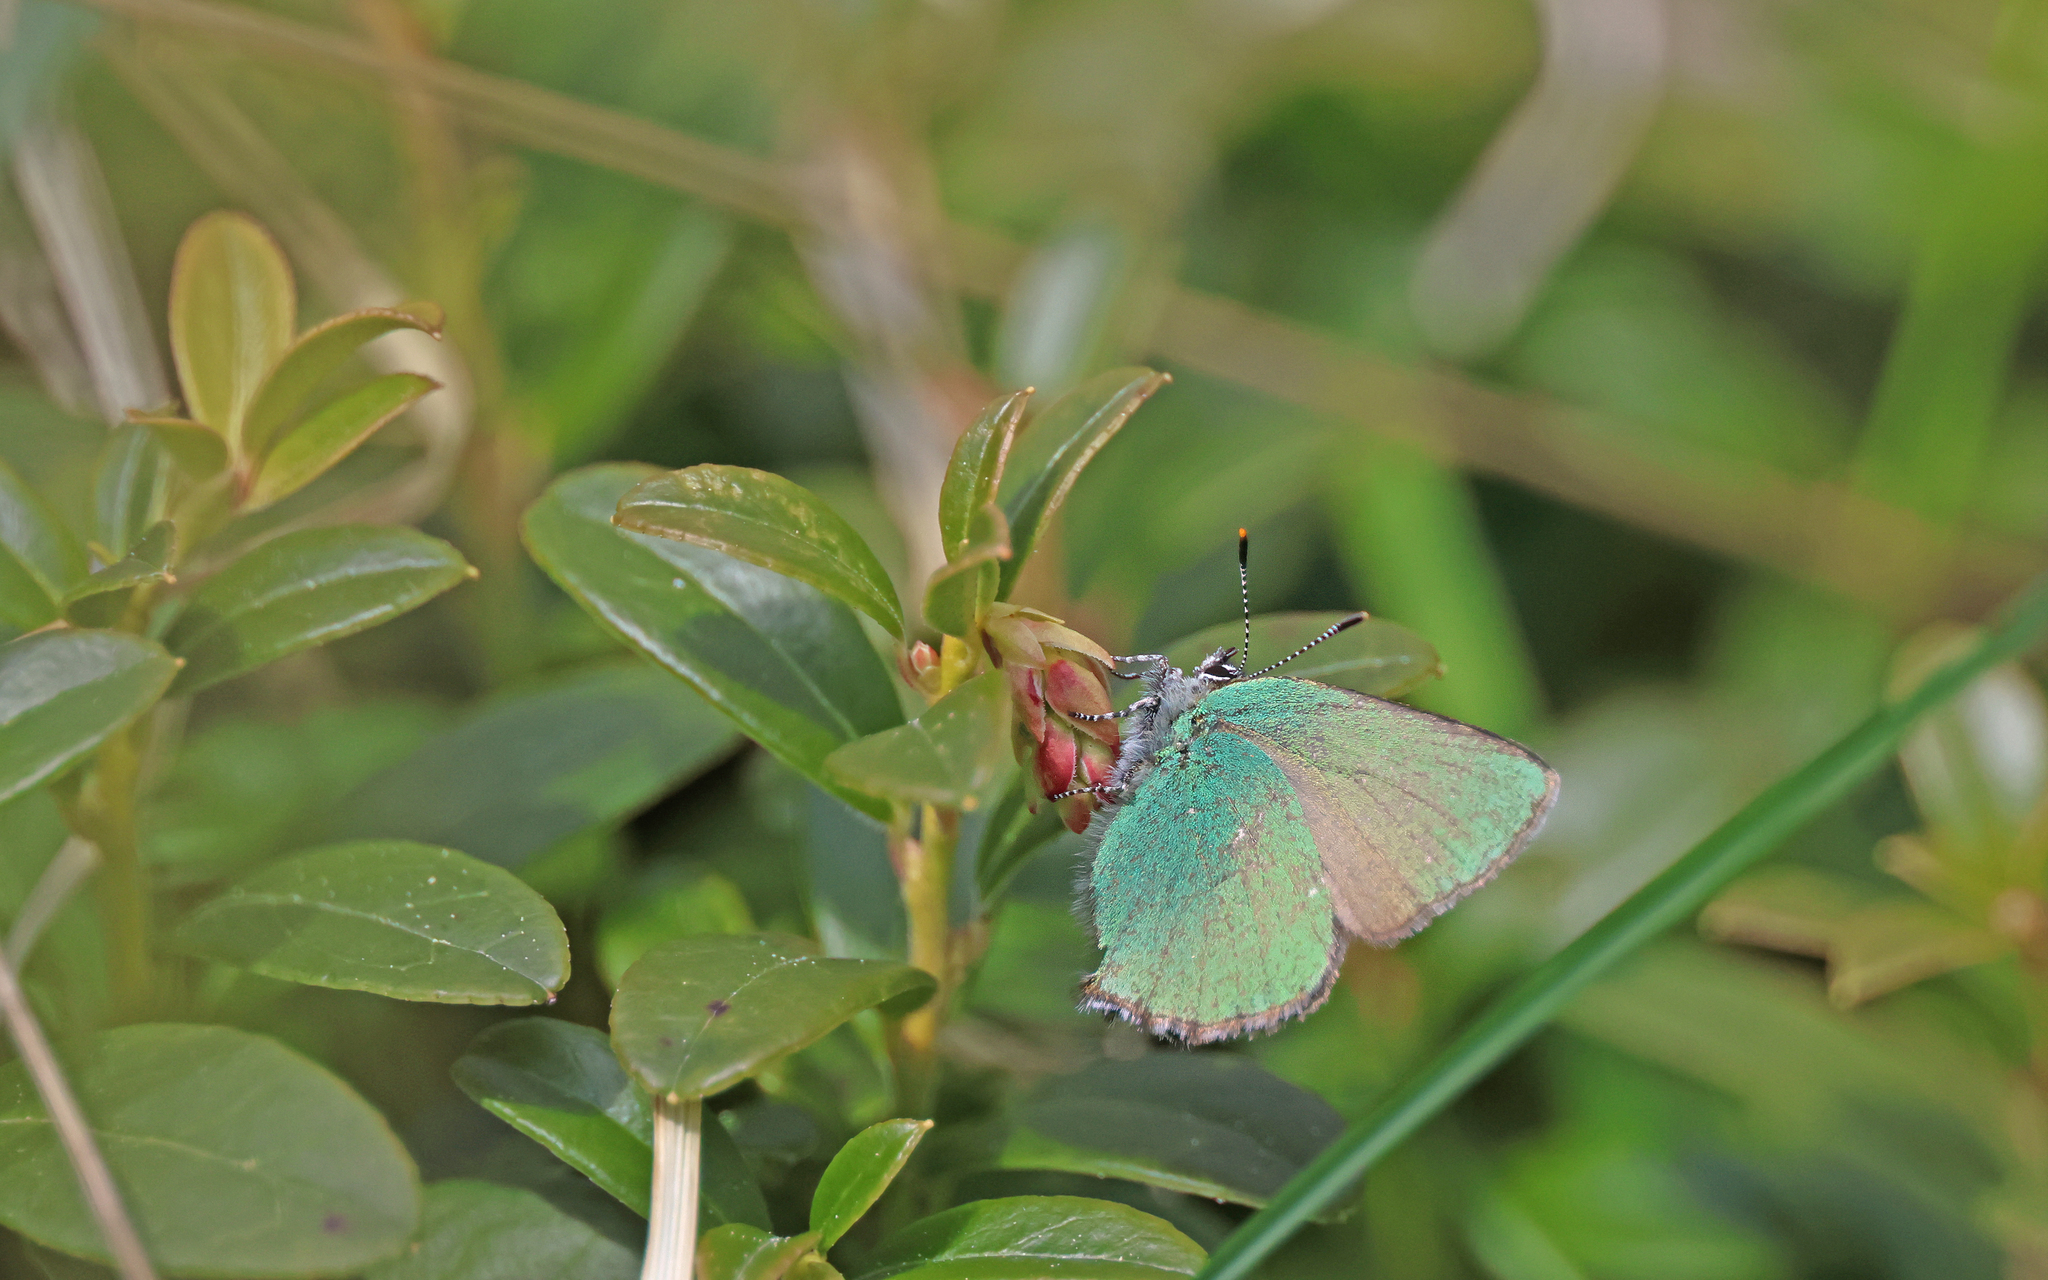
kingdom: Animalia
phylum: Arthropoda
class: Insecta
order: Lepidoptera
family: Lycaenidae
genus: Callophrys
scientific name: Callophrys rubi
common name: Green hairstreak
